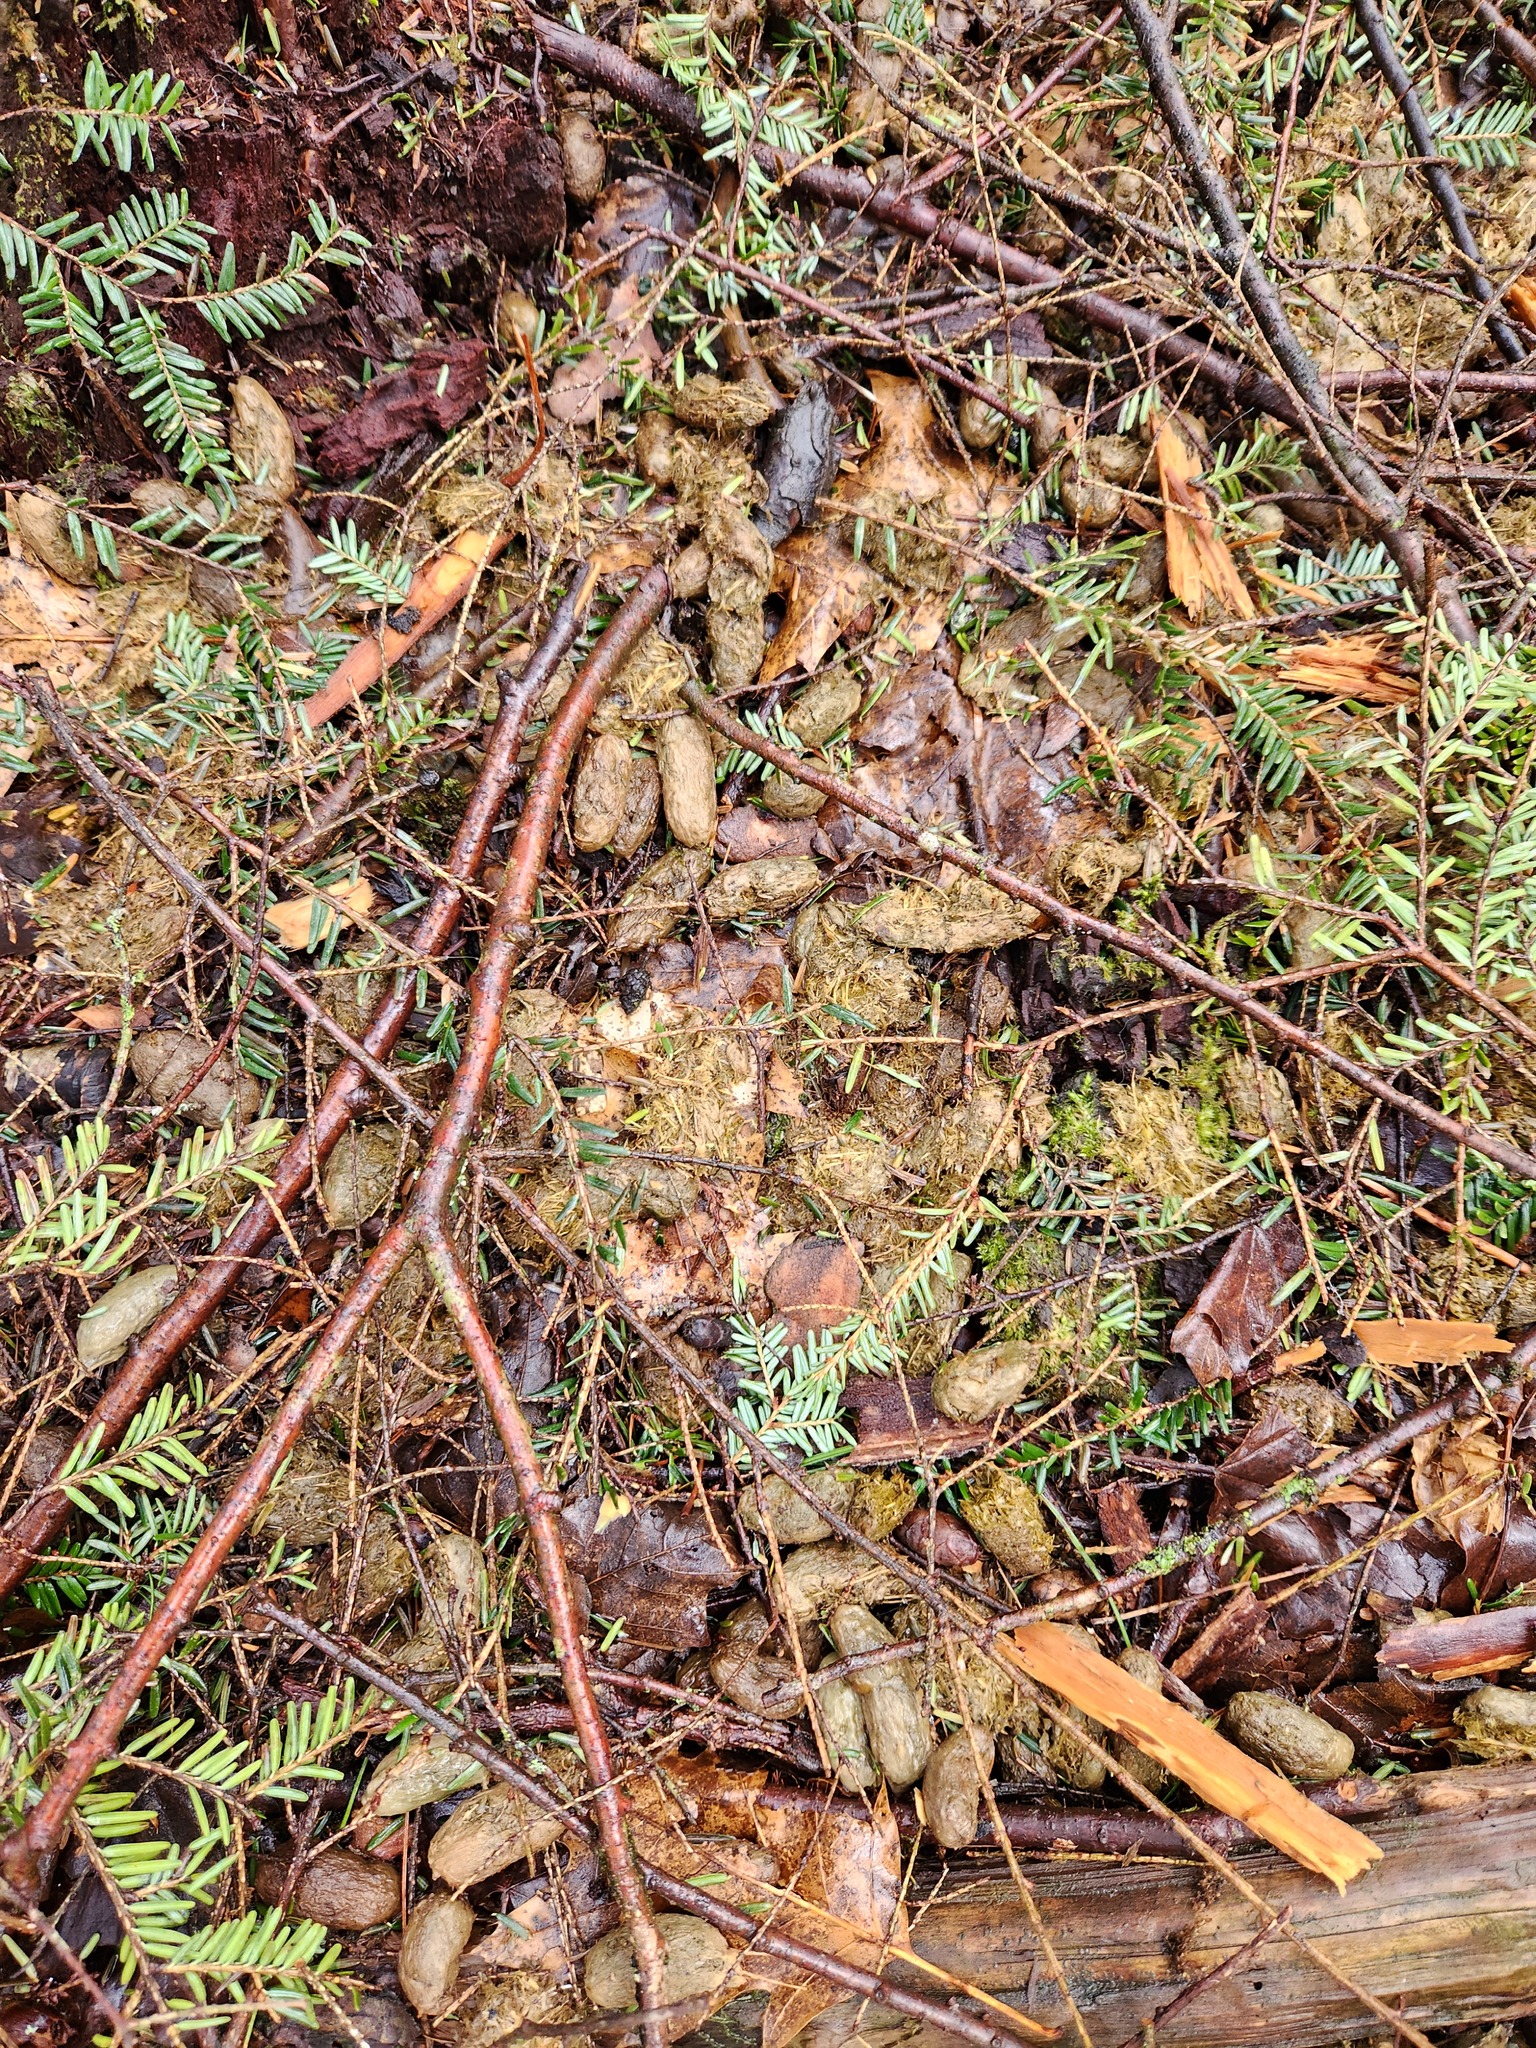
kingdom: Animalia
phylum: Chordata
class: Mammalia
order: Rodentia
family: Erethizontidae
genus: Erethizon
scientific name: Erethizon dorsatus
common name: North american porcupine
